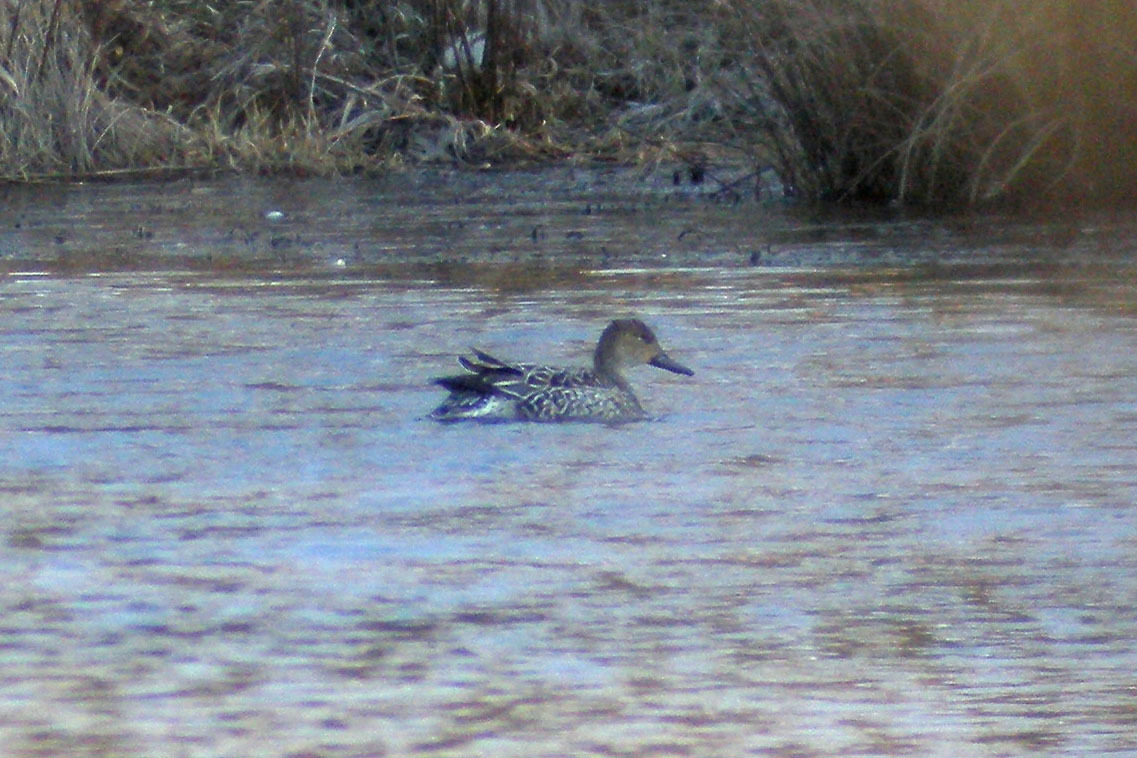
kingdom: Animalia
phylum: Chordata
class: Aves
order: Anseriformes
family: Anatidae
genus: Anas
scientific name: Anas acuta
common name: Northern pintail
